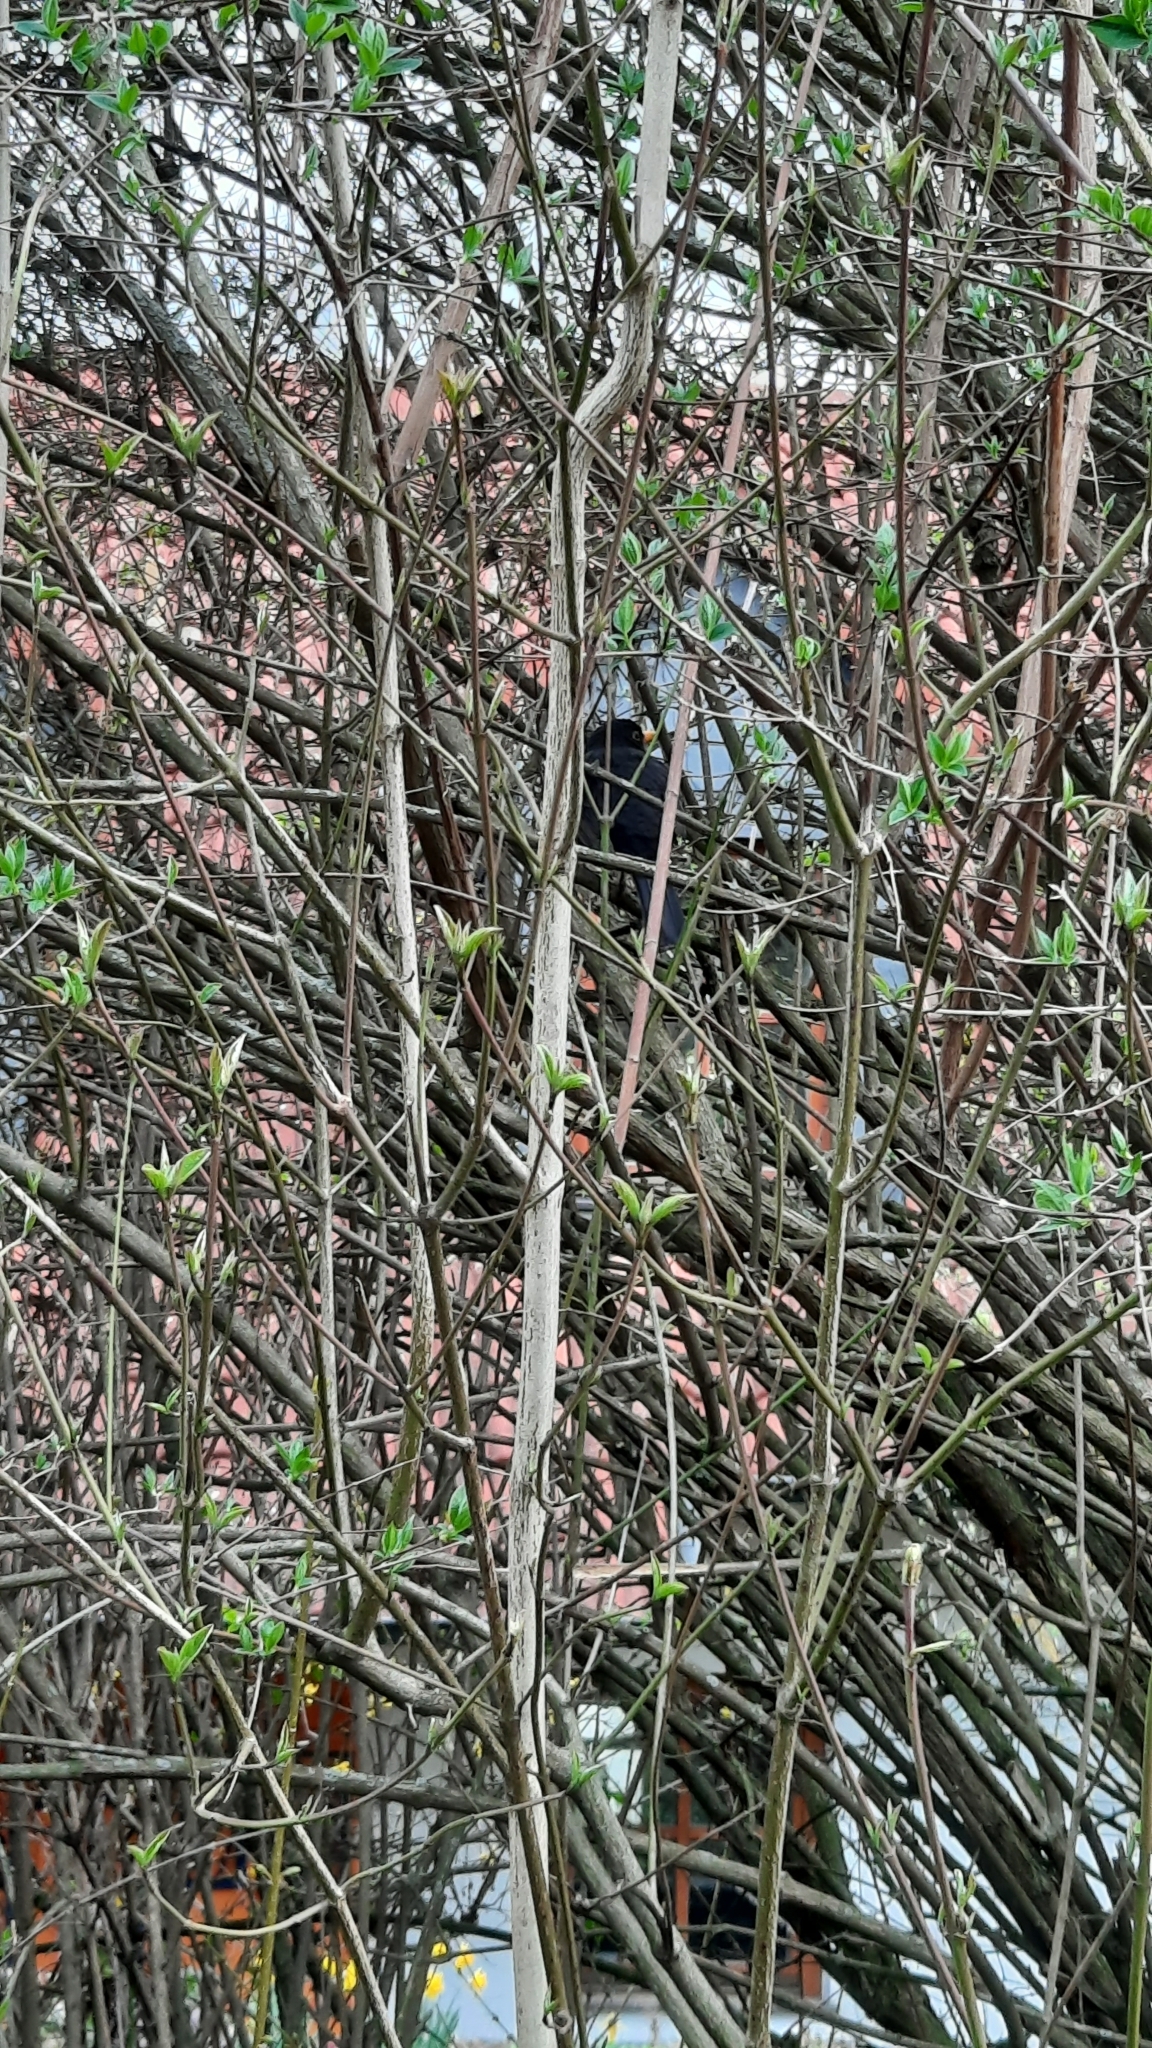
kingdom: Animalia
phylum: Chordata
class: Aves
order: Passeriformes
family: Turdidae
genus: Turdus
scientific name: Turdus merula
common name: Common blackbird
